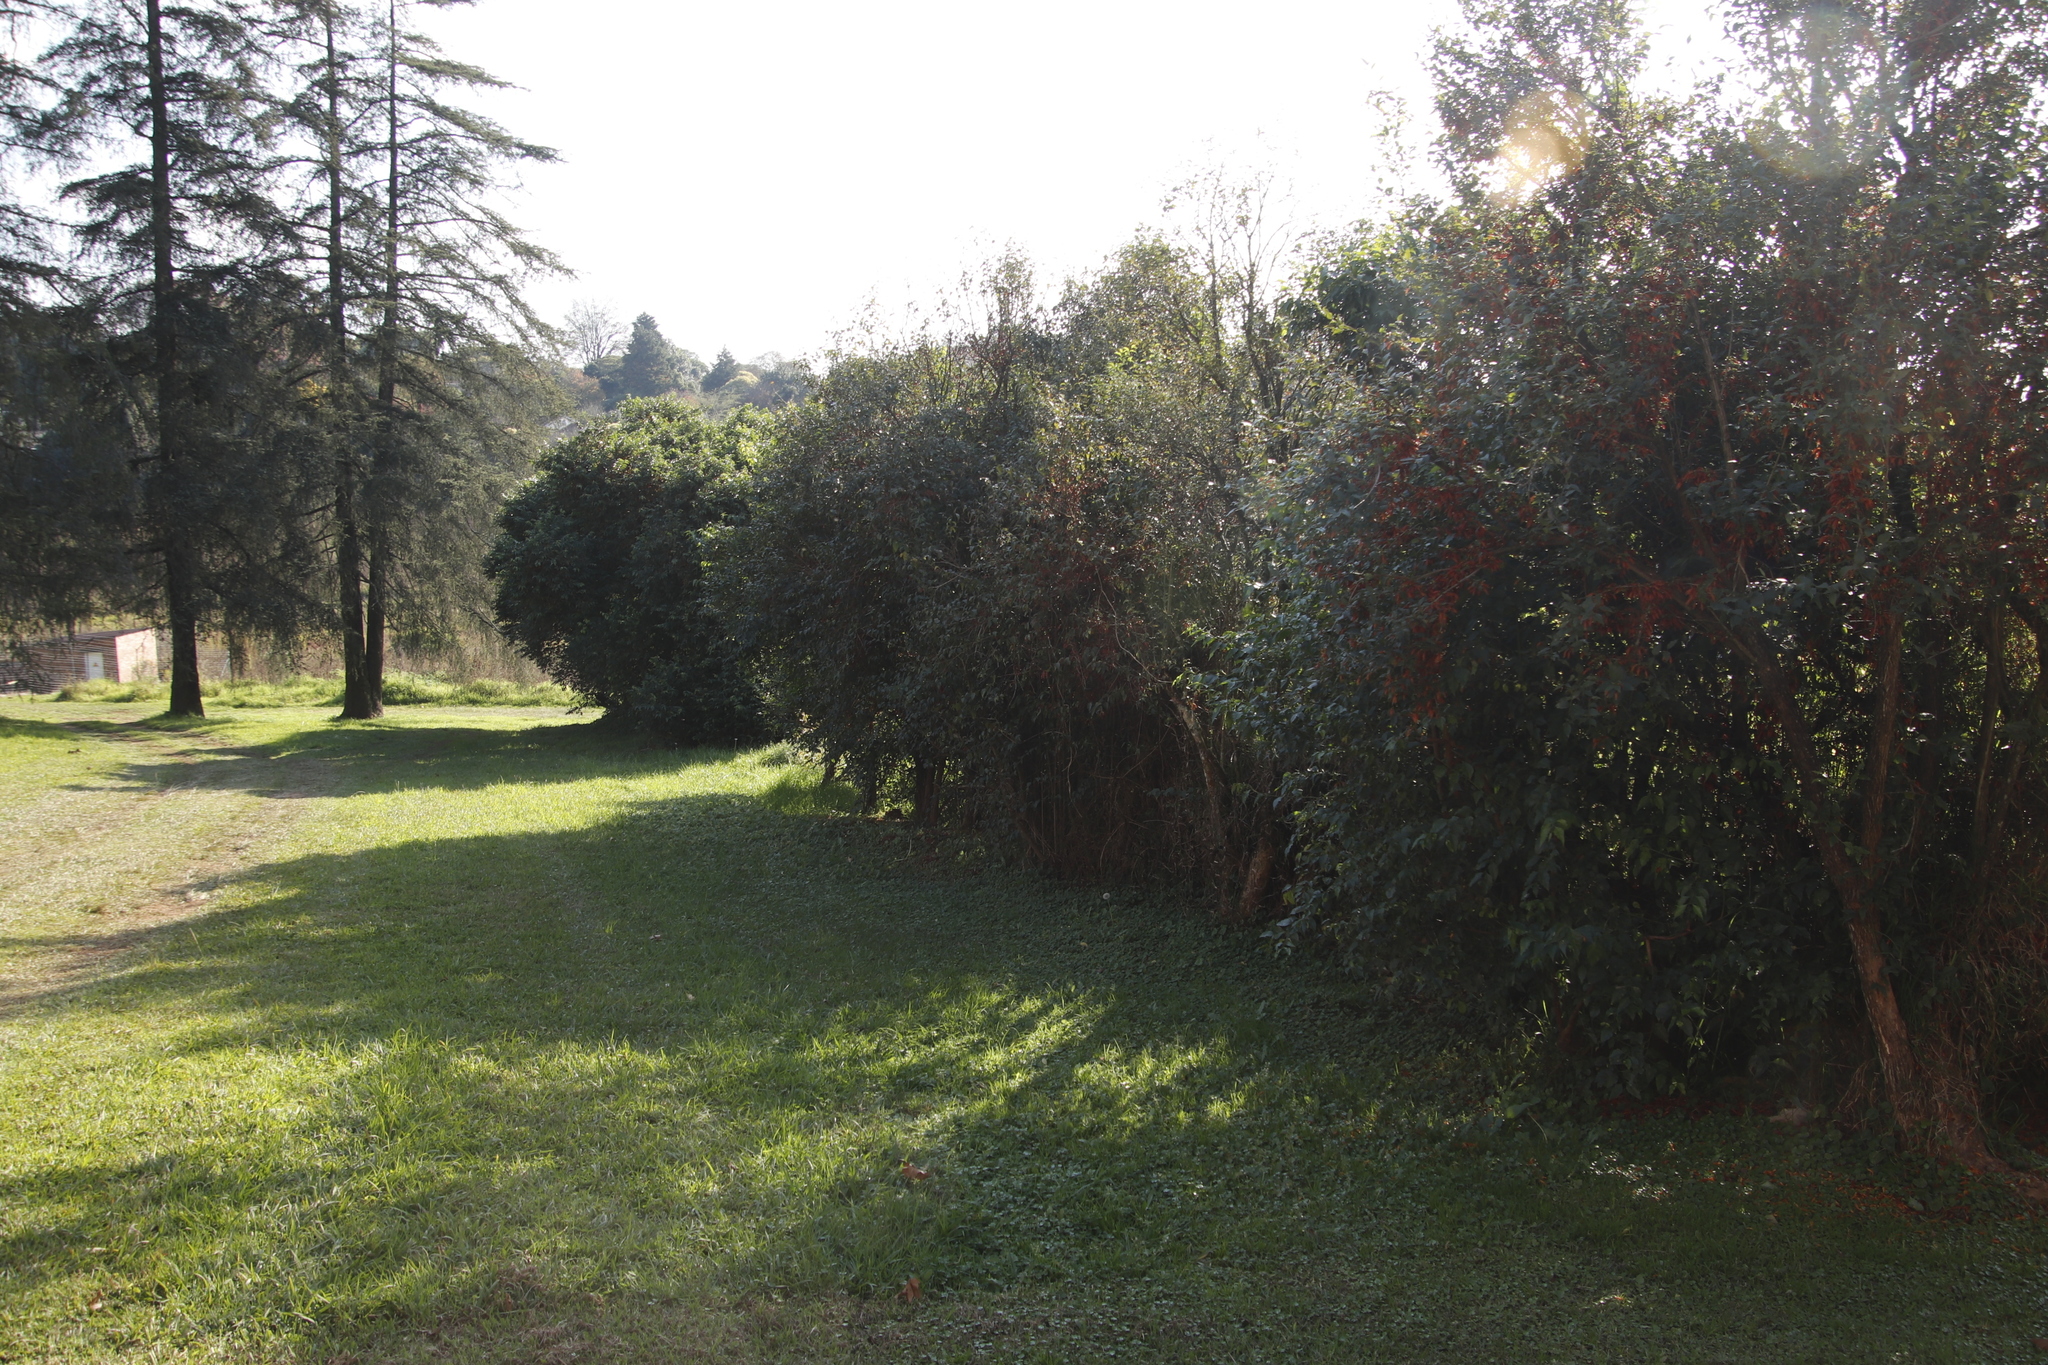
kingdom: Plantae
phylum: Tracheophyta
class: Magnoliopsida
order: Lamiales
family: Stilbaceae
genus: Halleria
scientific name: Halleria lucida
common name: Tree fuschia
